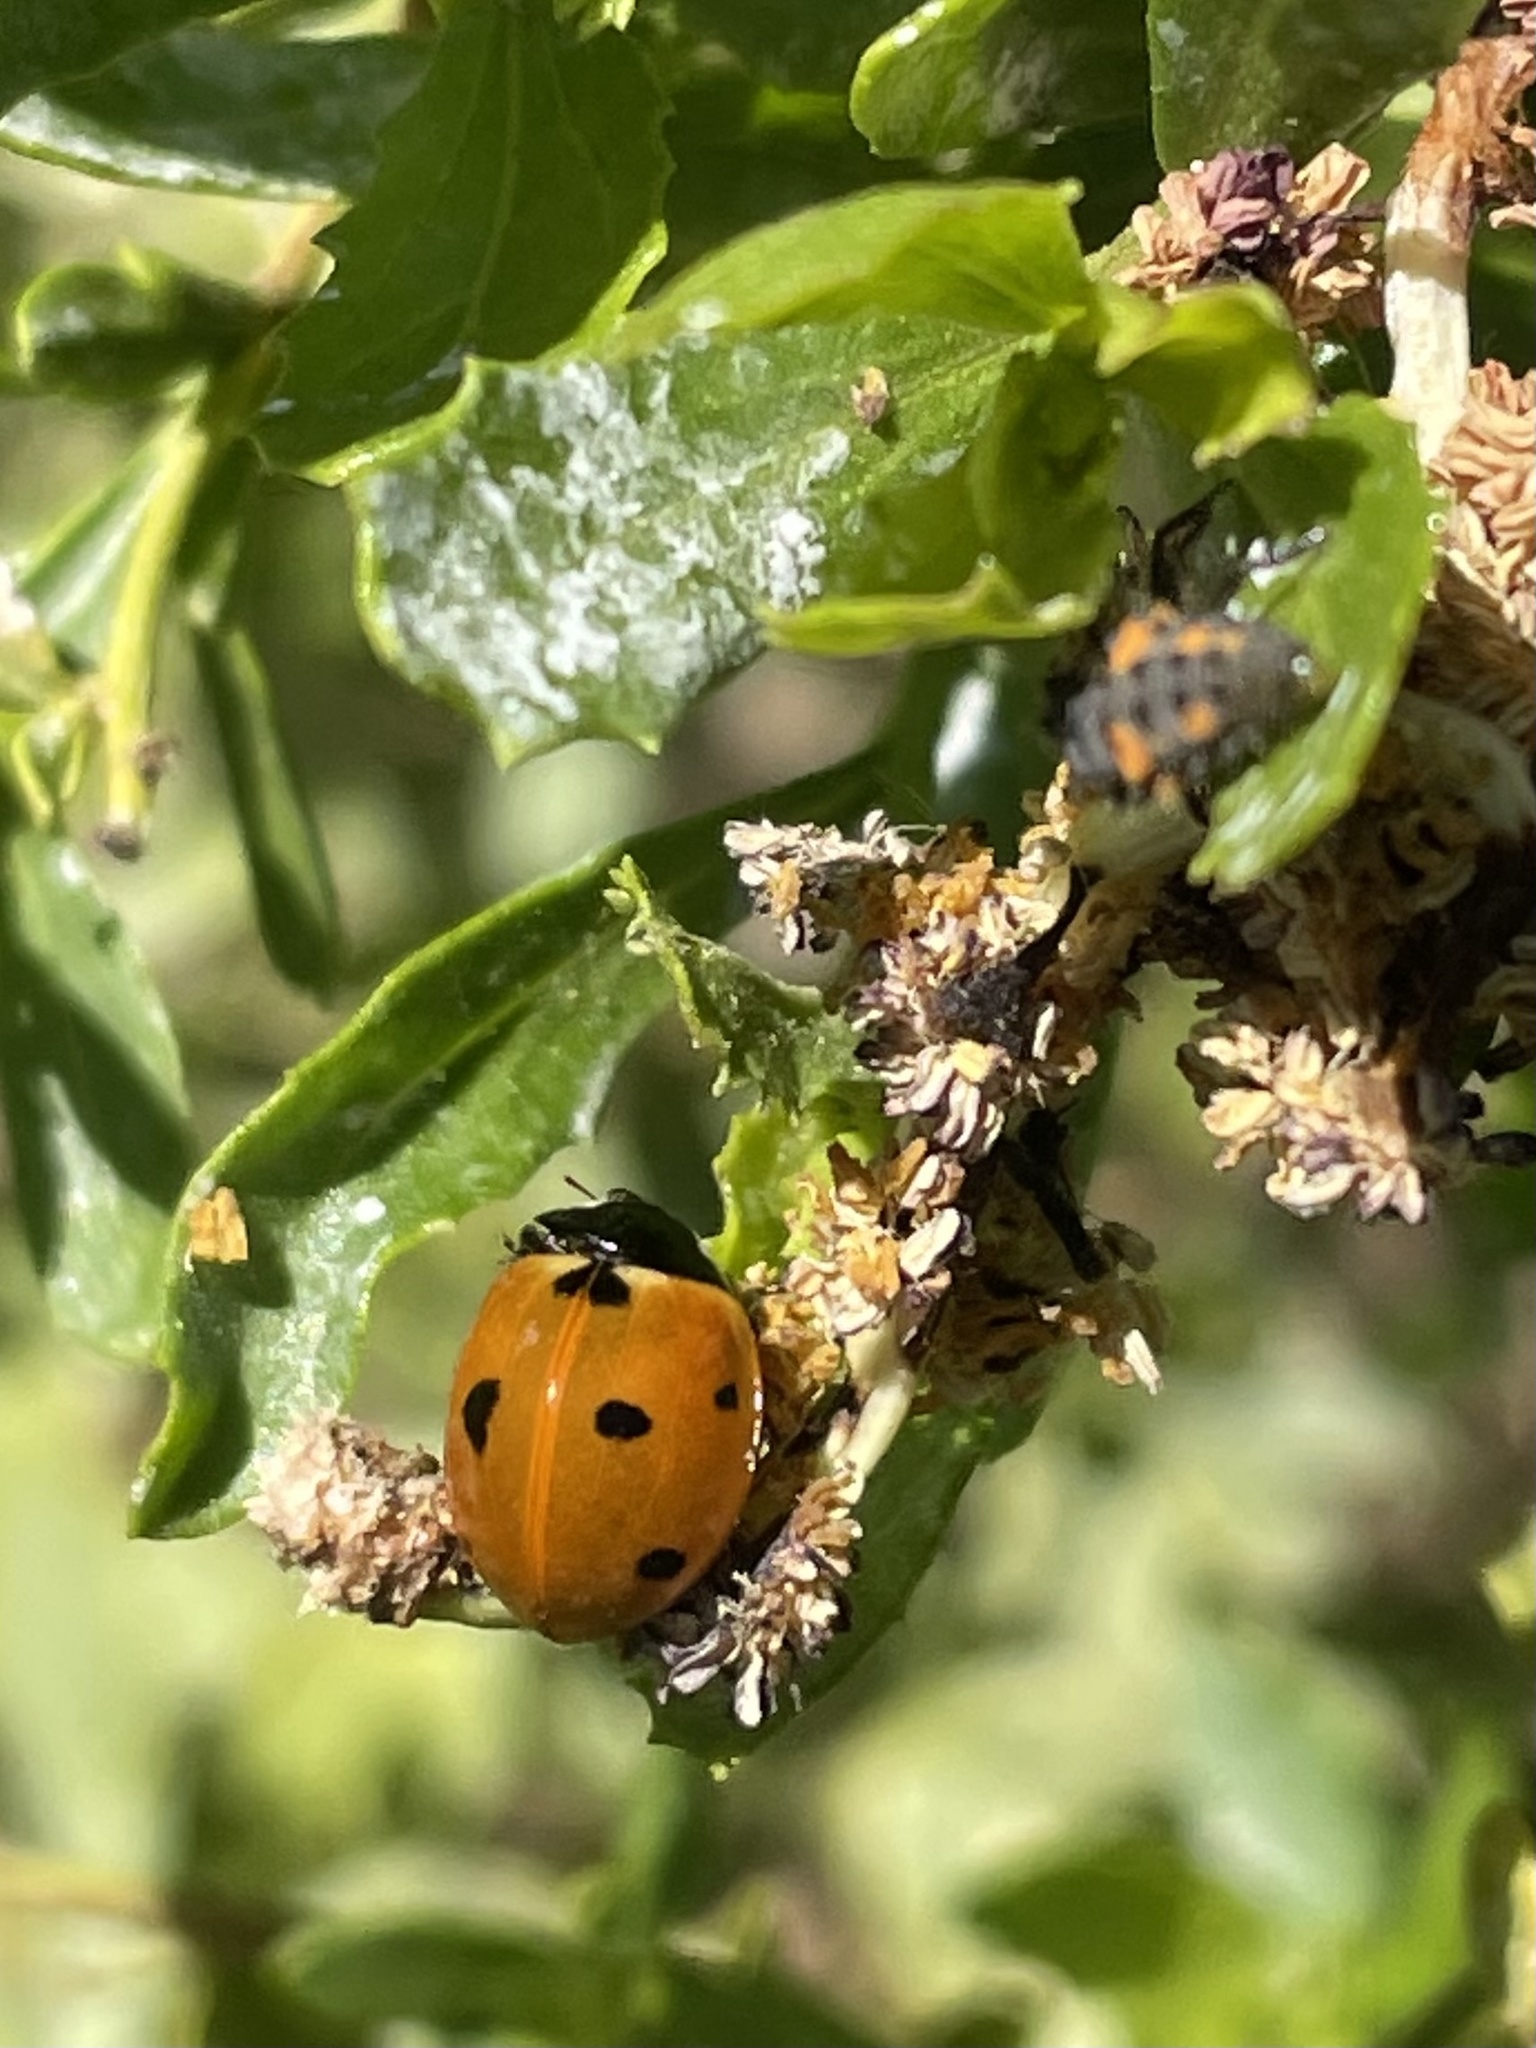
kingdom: Animalia
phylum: Arthropoda
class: Insecta
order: Coleoptera
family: Coccinellidae
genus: Coccinella
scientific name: Coccinella septempunctata
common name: Sevenspotted lady beetle
